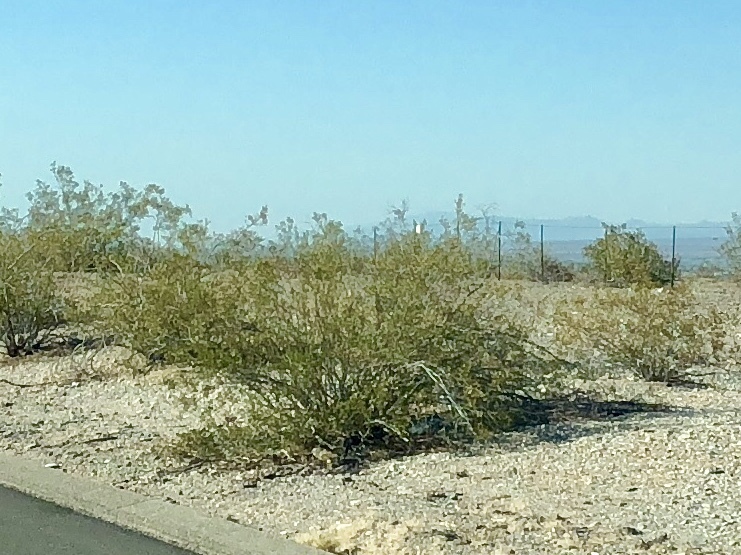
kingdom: Plantae
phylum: Tracheophyta
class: Magnoliopsida
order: Zygophyllales
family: Zygophyllaceae
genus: Larrea
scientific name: Larrea tridentata
